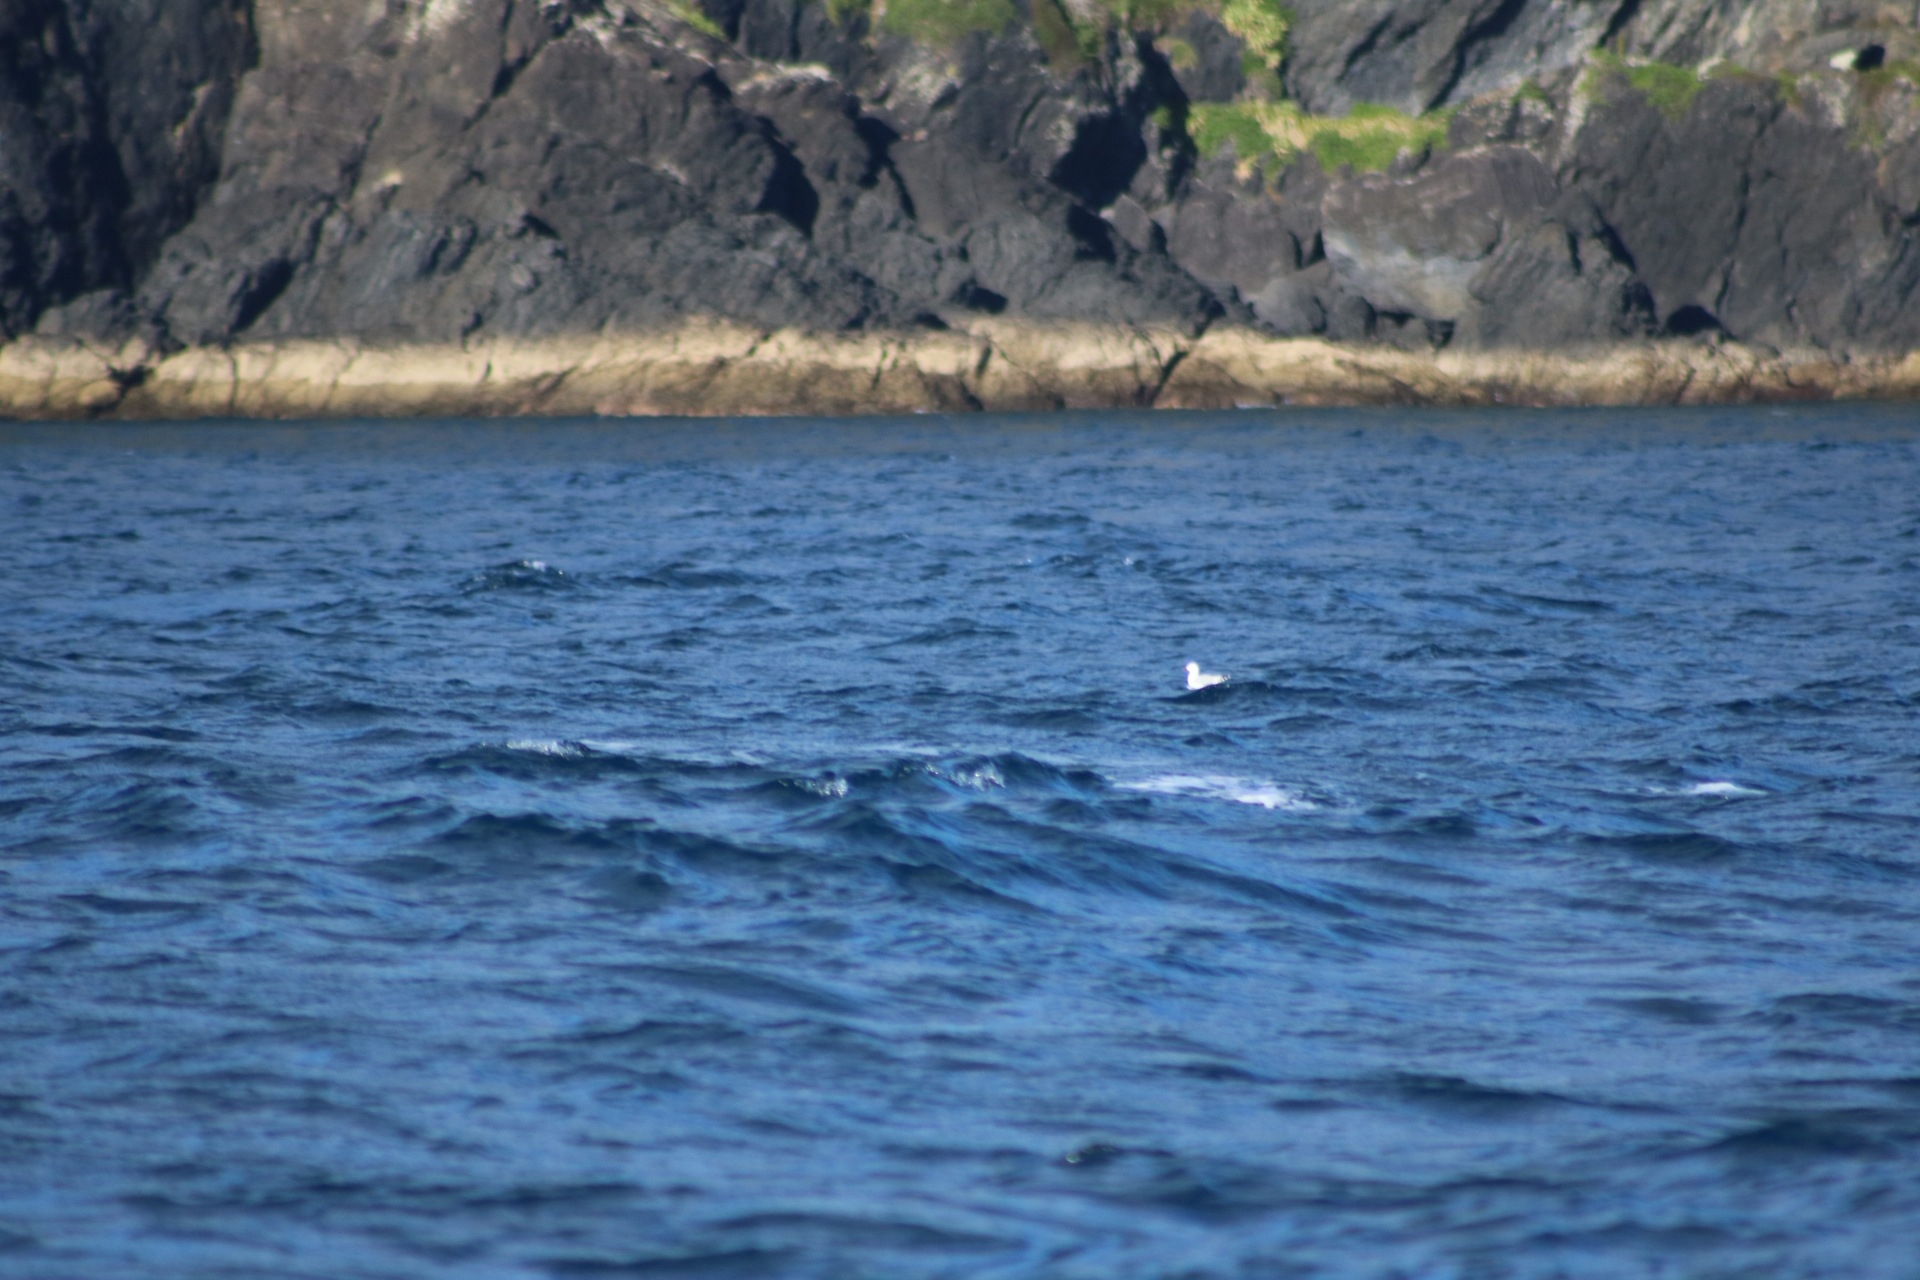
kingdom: Animalia
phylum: Chordata
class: Aves
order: Charadriiformes
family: Laridae
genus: Chroicocephalus
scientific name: Chroicocephalus novaehollandiae
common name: Silver gull
